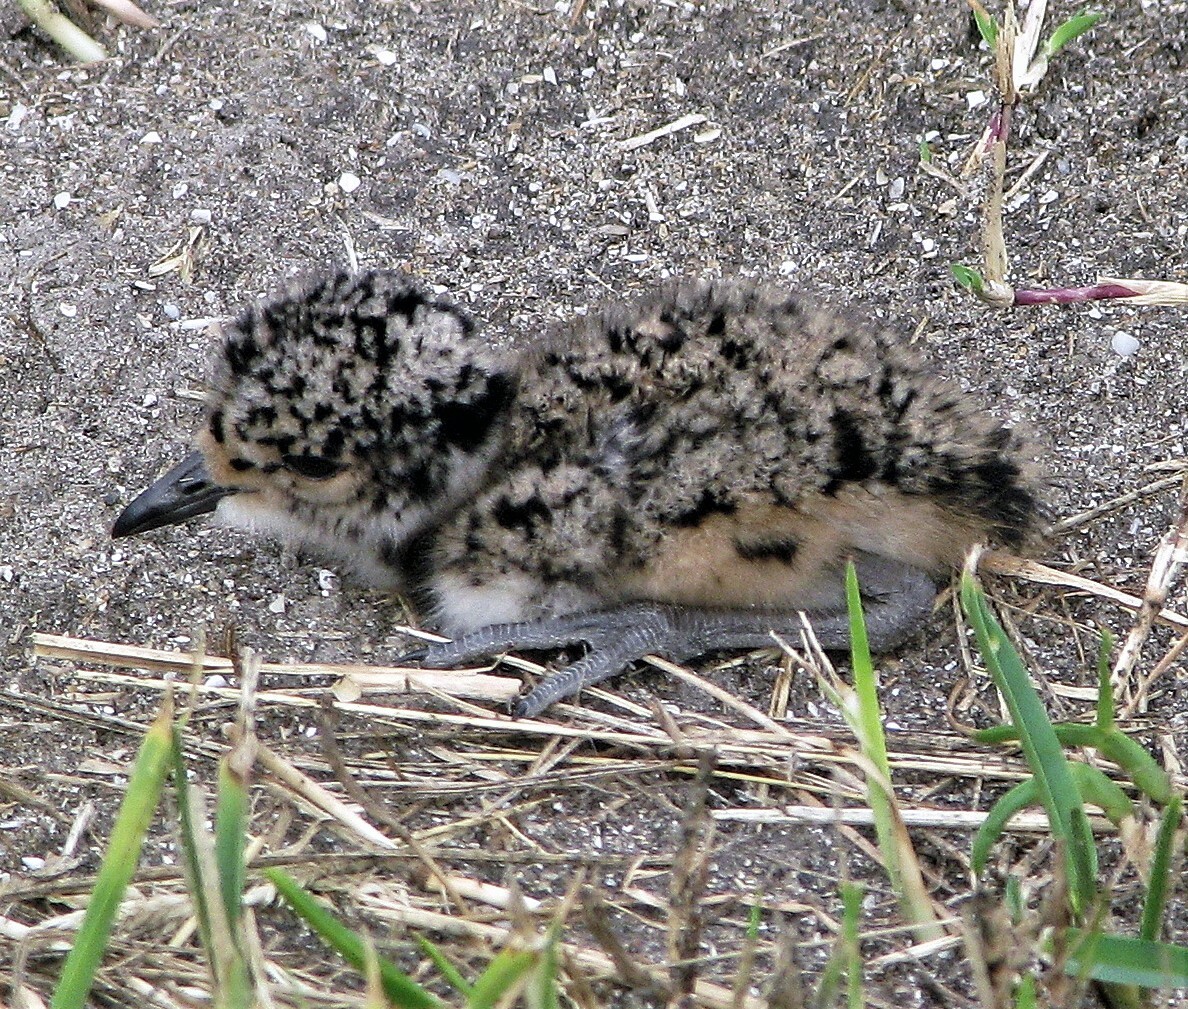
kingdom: Animalia
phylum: Chordata
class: Aves
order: Charadriiformes
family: Charadriidae
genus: Vanellus
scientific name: Vanellus chilensis
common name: Southern lapwing
